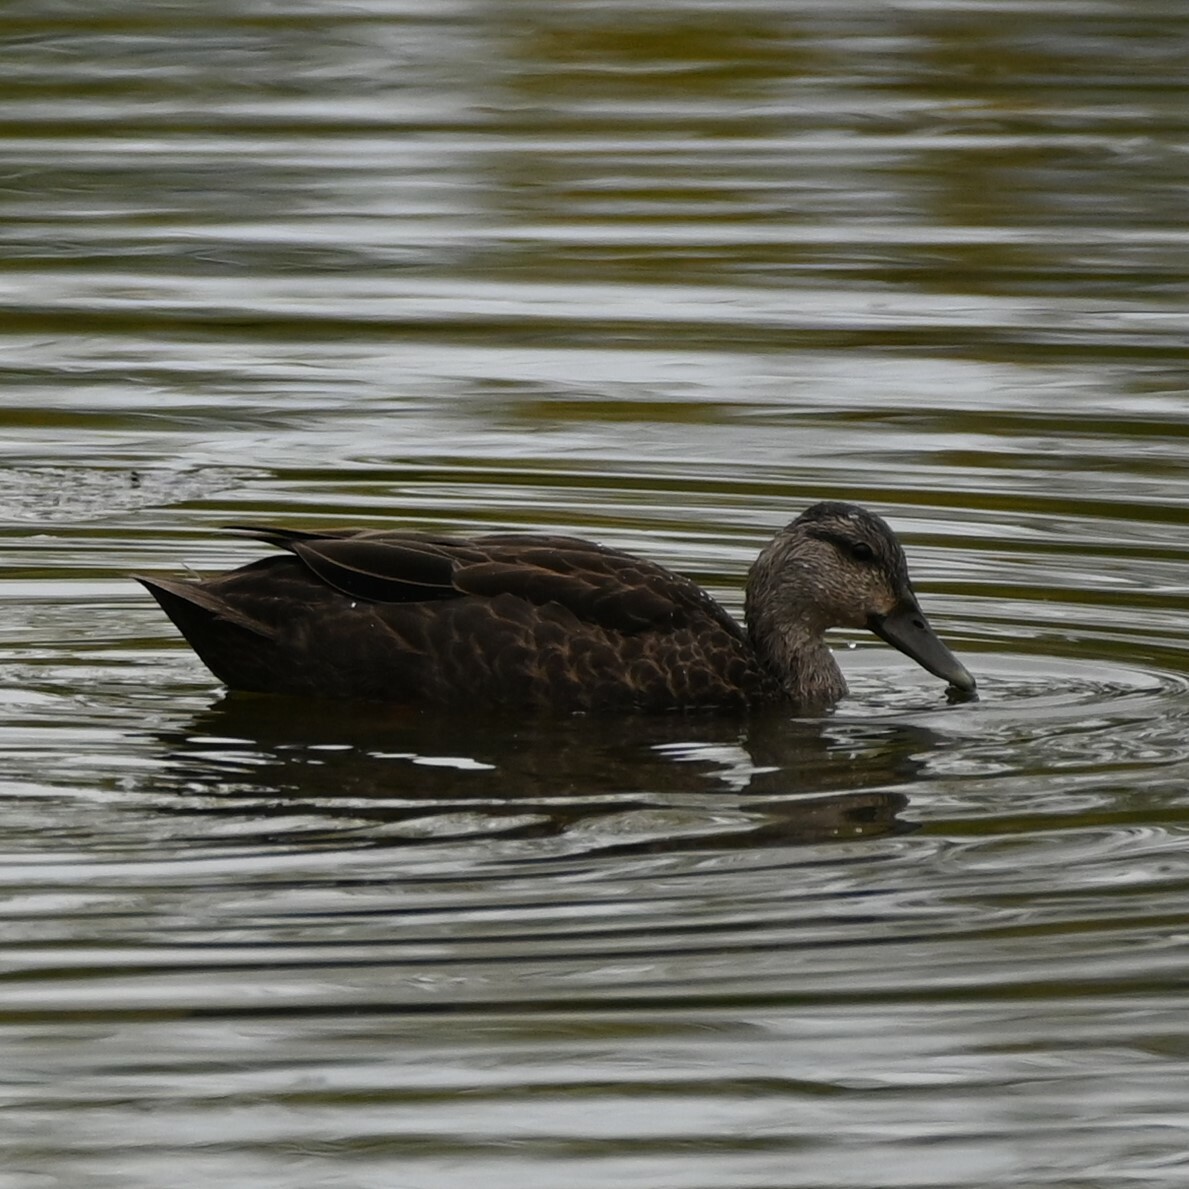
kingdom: Animalia
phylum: Chordata
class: Aves
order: Anseriformes
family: Anatidae
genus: Anas
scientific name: Anas rubripes
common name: American black duck
